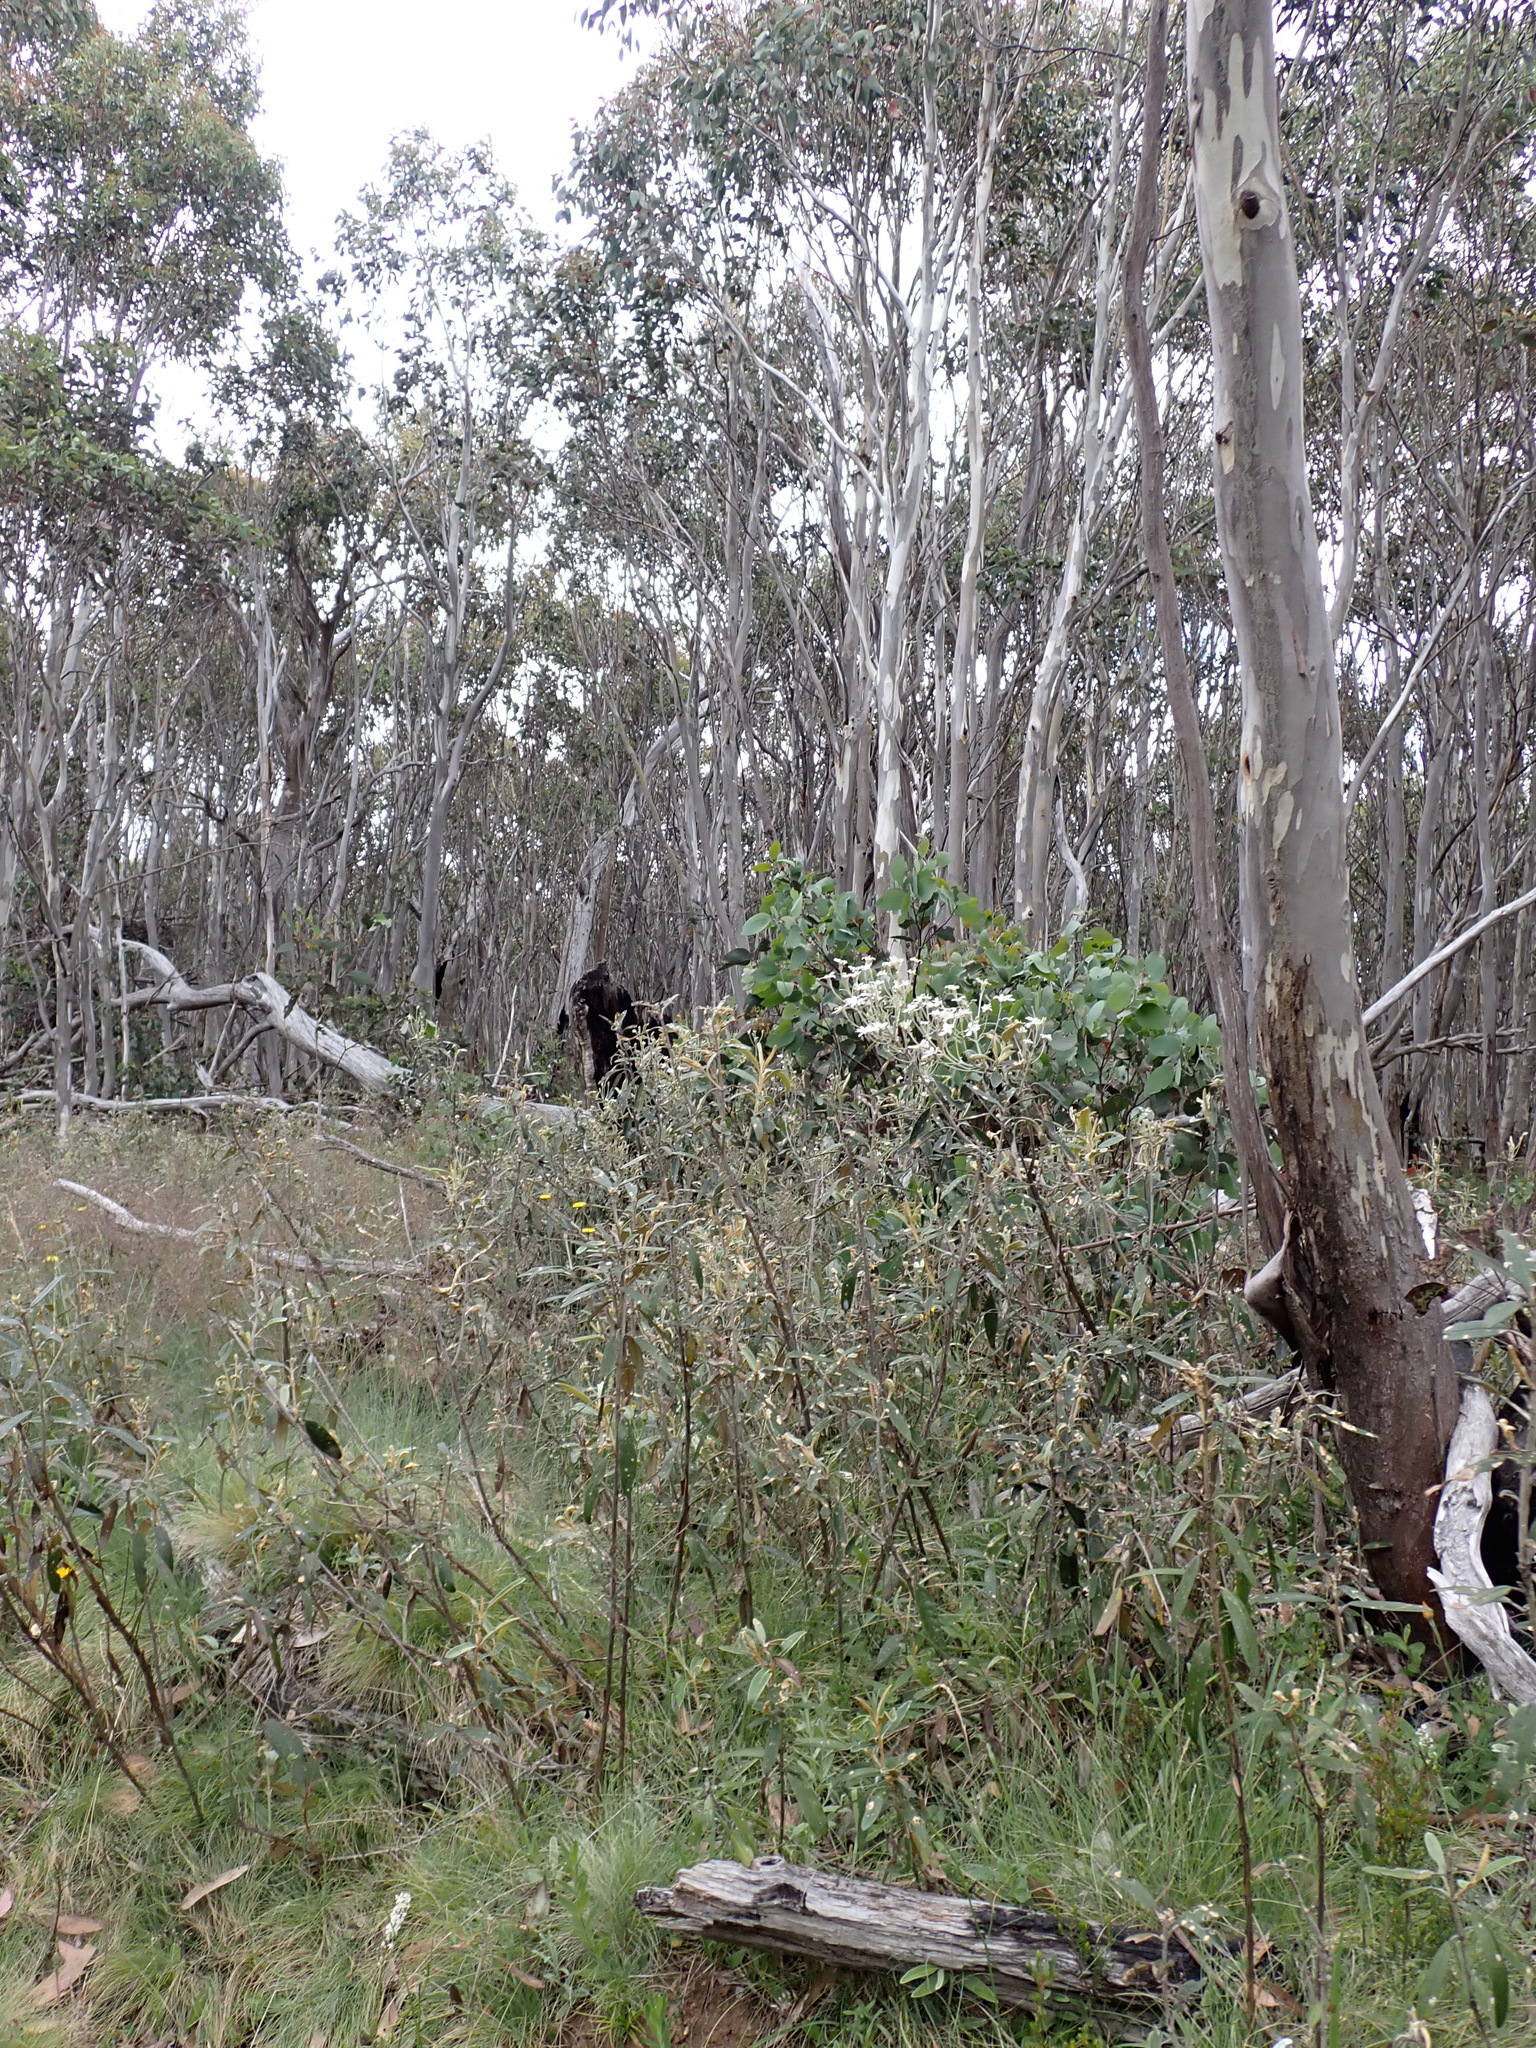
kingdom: Plantae
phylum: Tracheophyta
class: Magnoliopsida
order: Asterales
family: Asteraceae
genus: Olearia
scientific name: Olearia megalophylla
